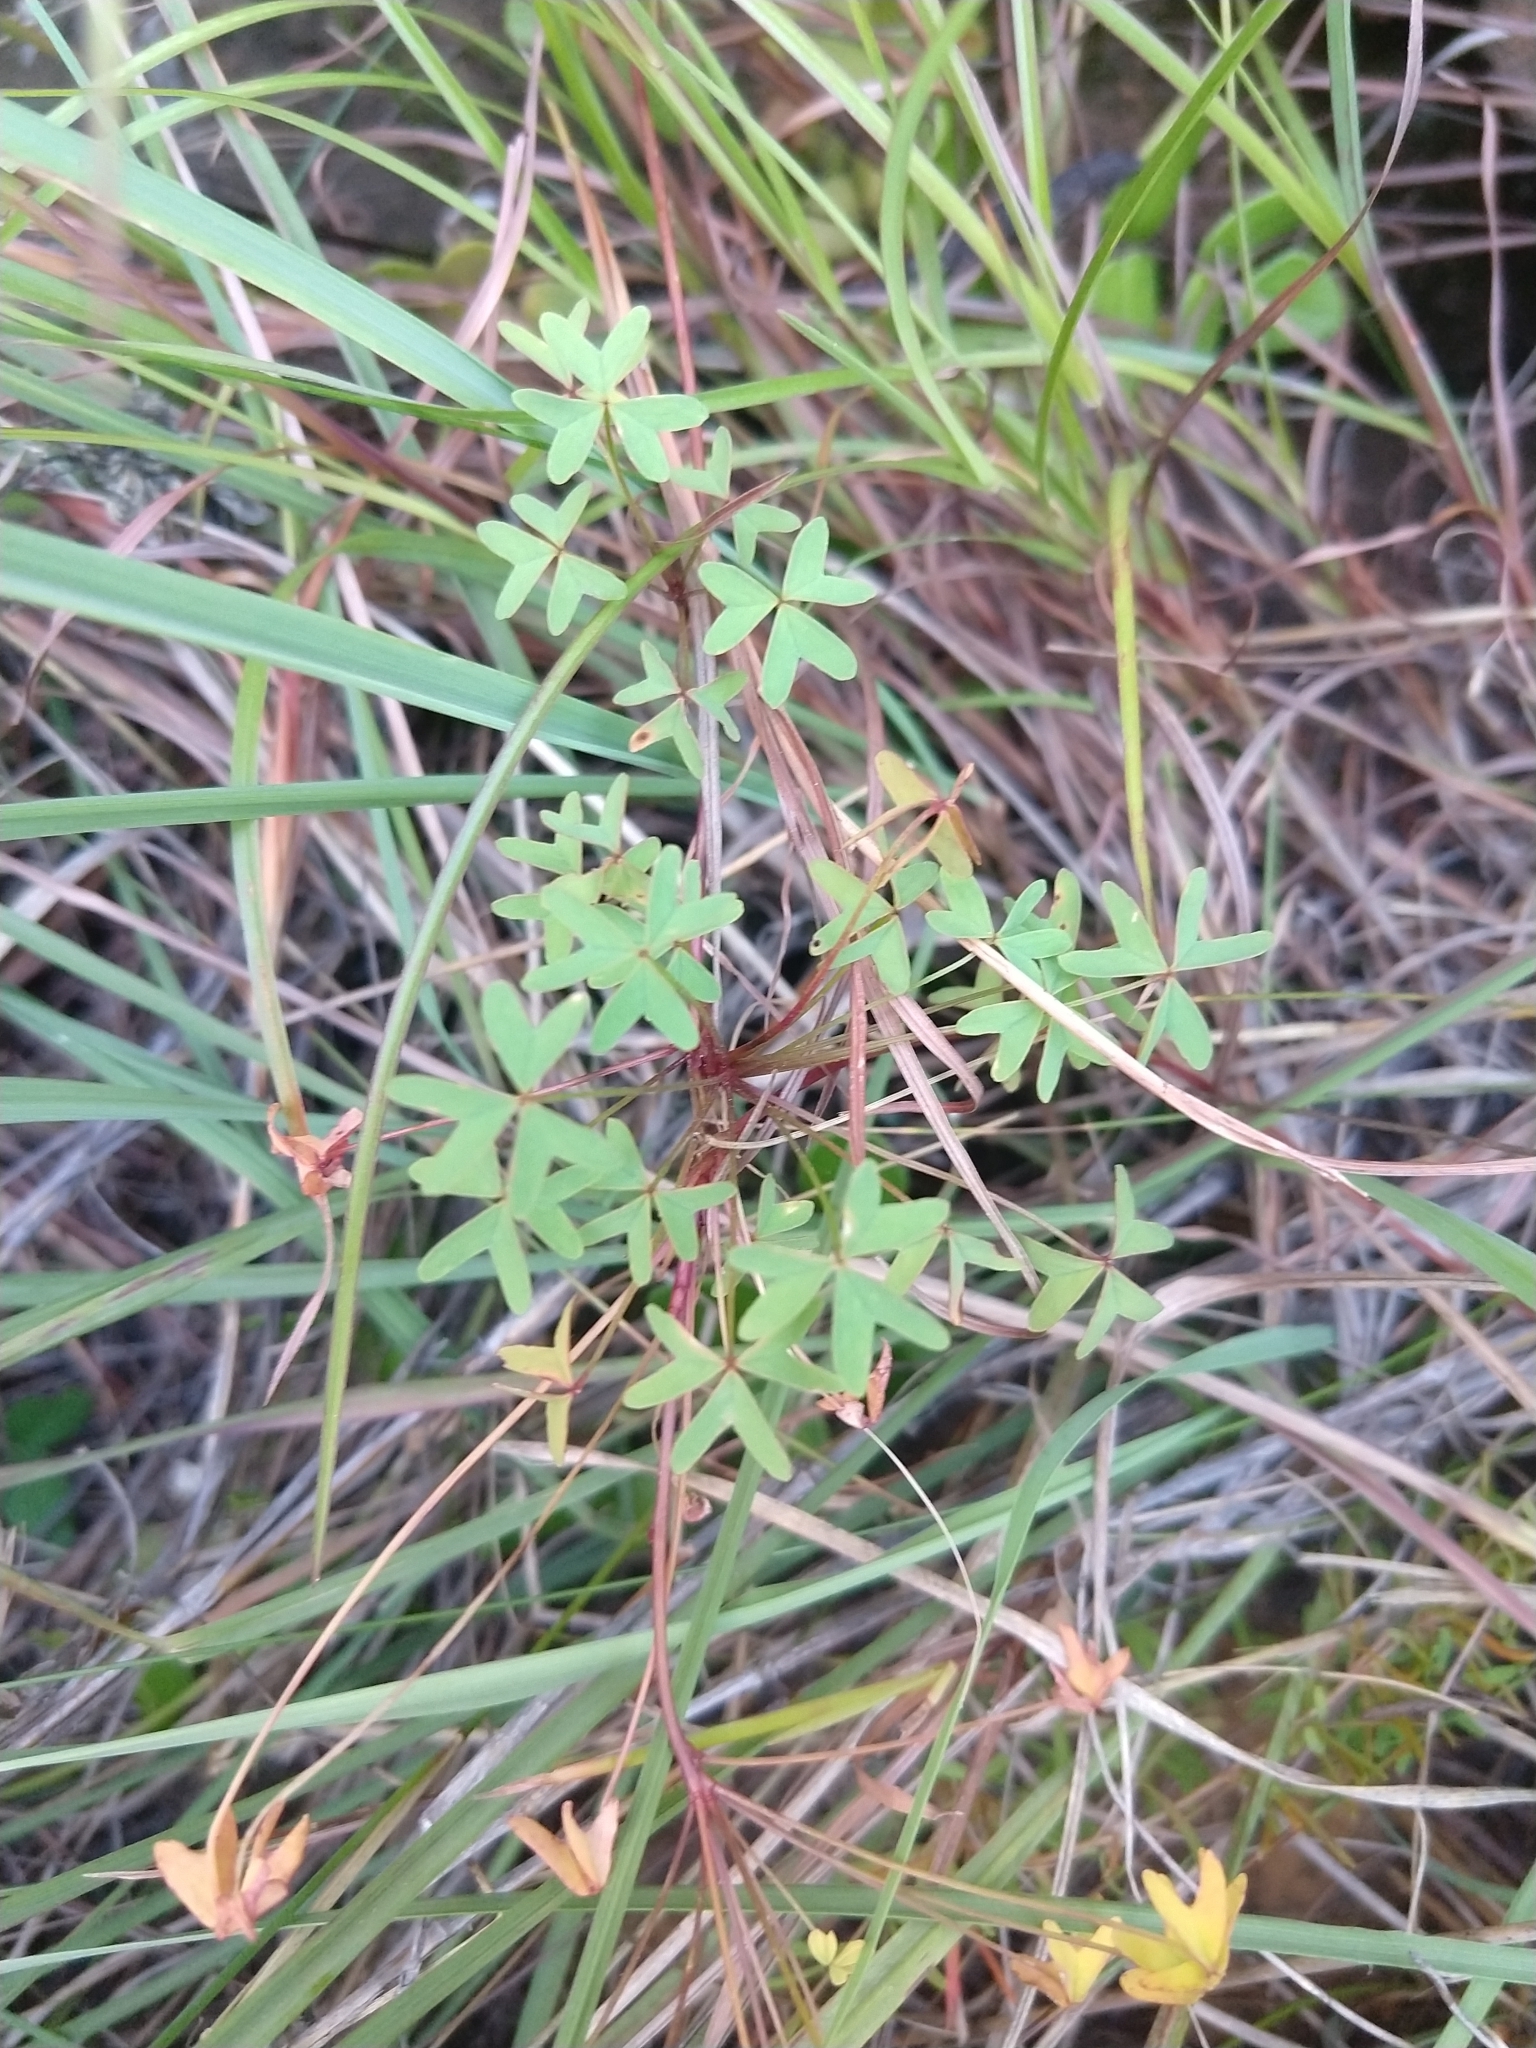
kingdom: Plantae
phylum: Tracheophyta
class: Magnoliopsida
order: Oxalidales
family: Oxalidaceae
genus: Oxalis
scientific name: Oxalis bifida
